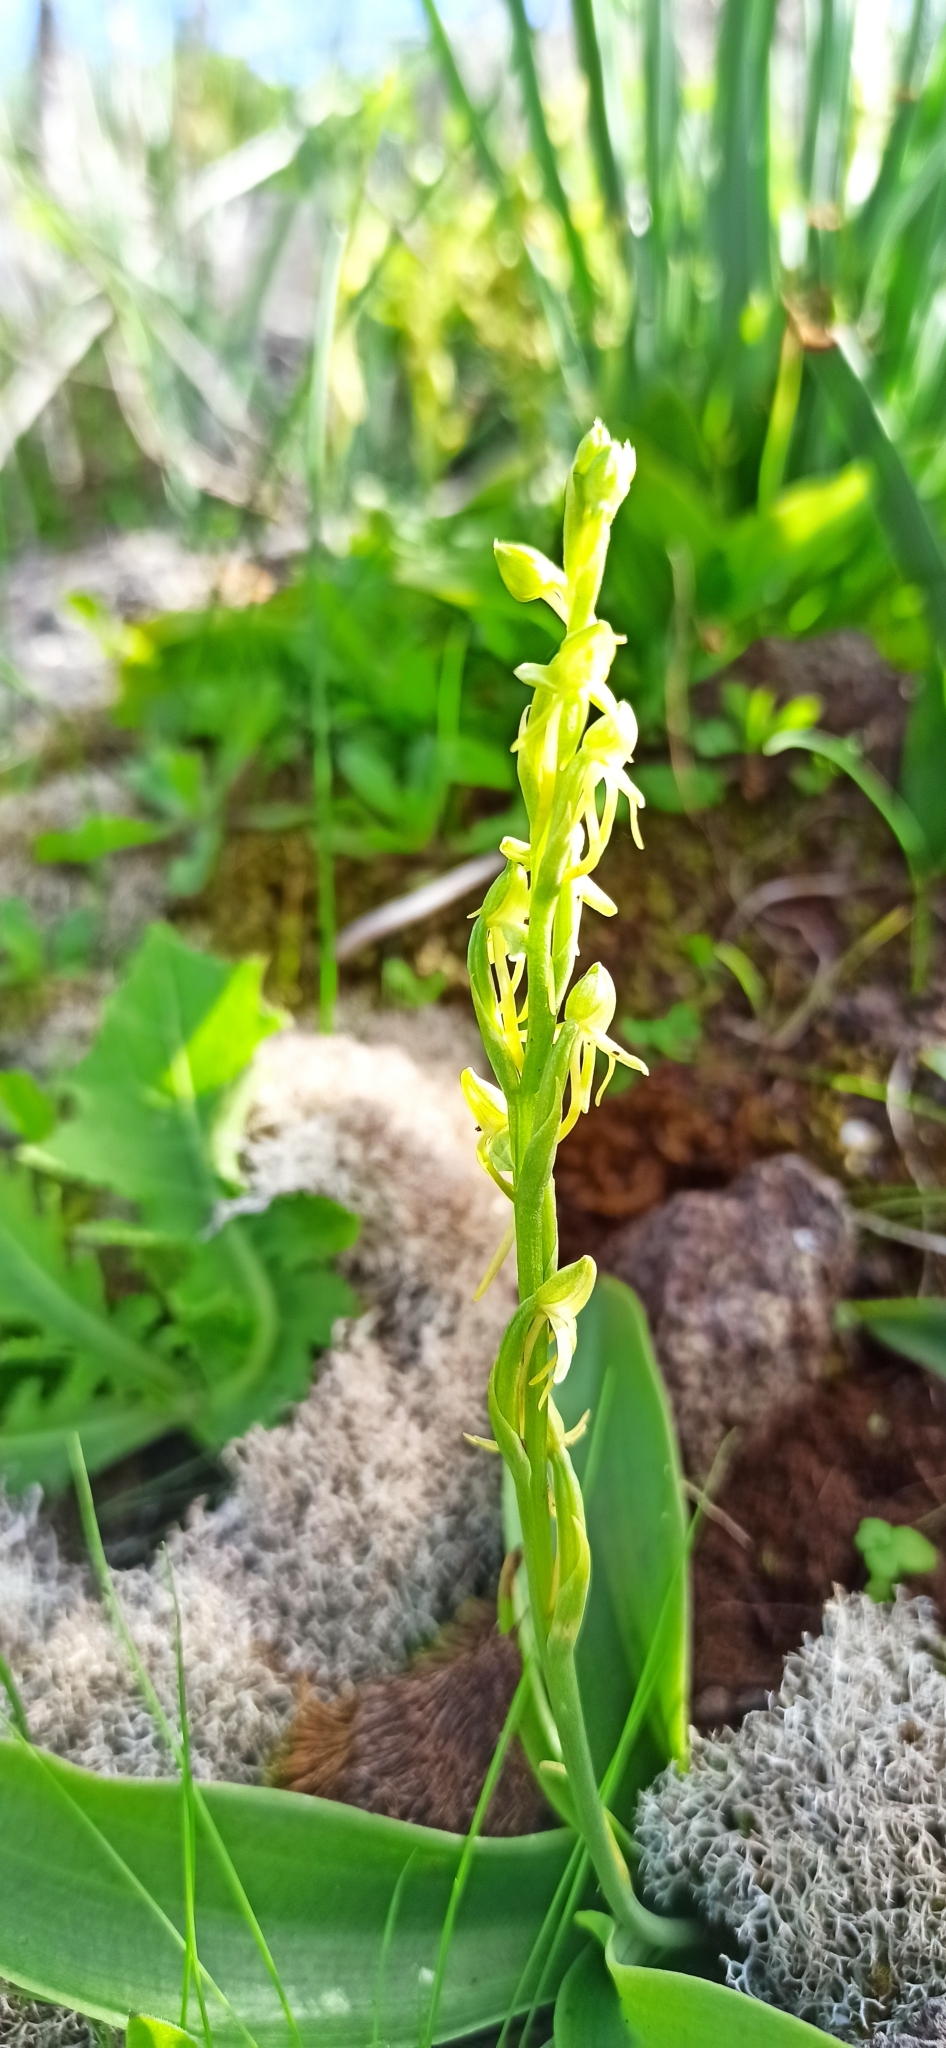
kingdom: Plantae
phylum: Tracheophyta
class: Liliopsida
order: Asparagales
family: Orchidaceae
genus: Habenaria
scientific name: Habenaria tridactylites
